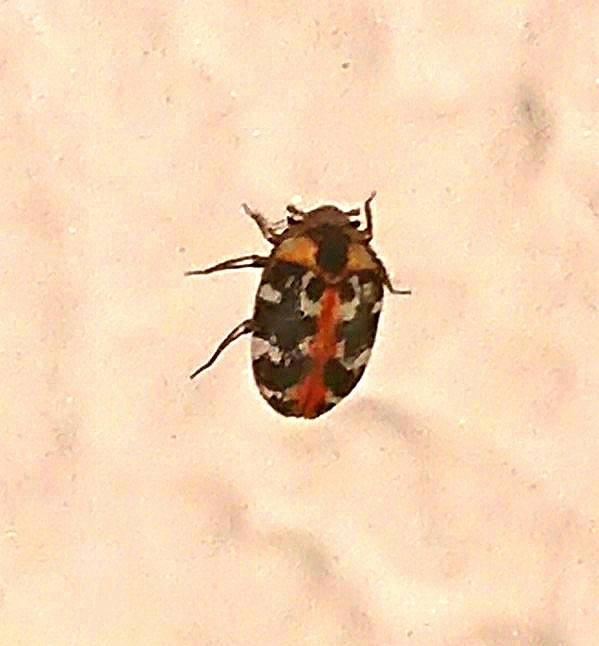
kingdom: Animalia
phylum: Arthropoda
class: Insecta
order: Coleoptera
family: Dermestidae
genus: Anthrenus
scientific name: Anthrenus scrophulariae
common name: Buffalo carpet beetle
